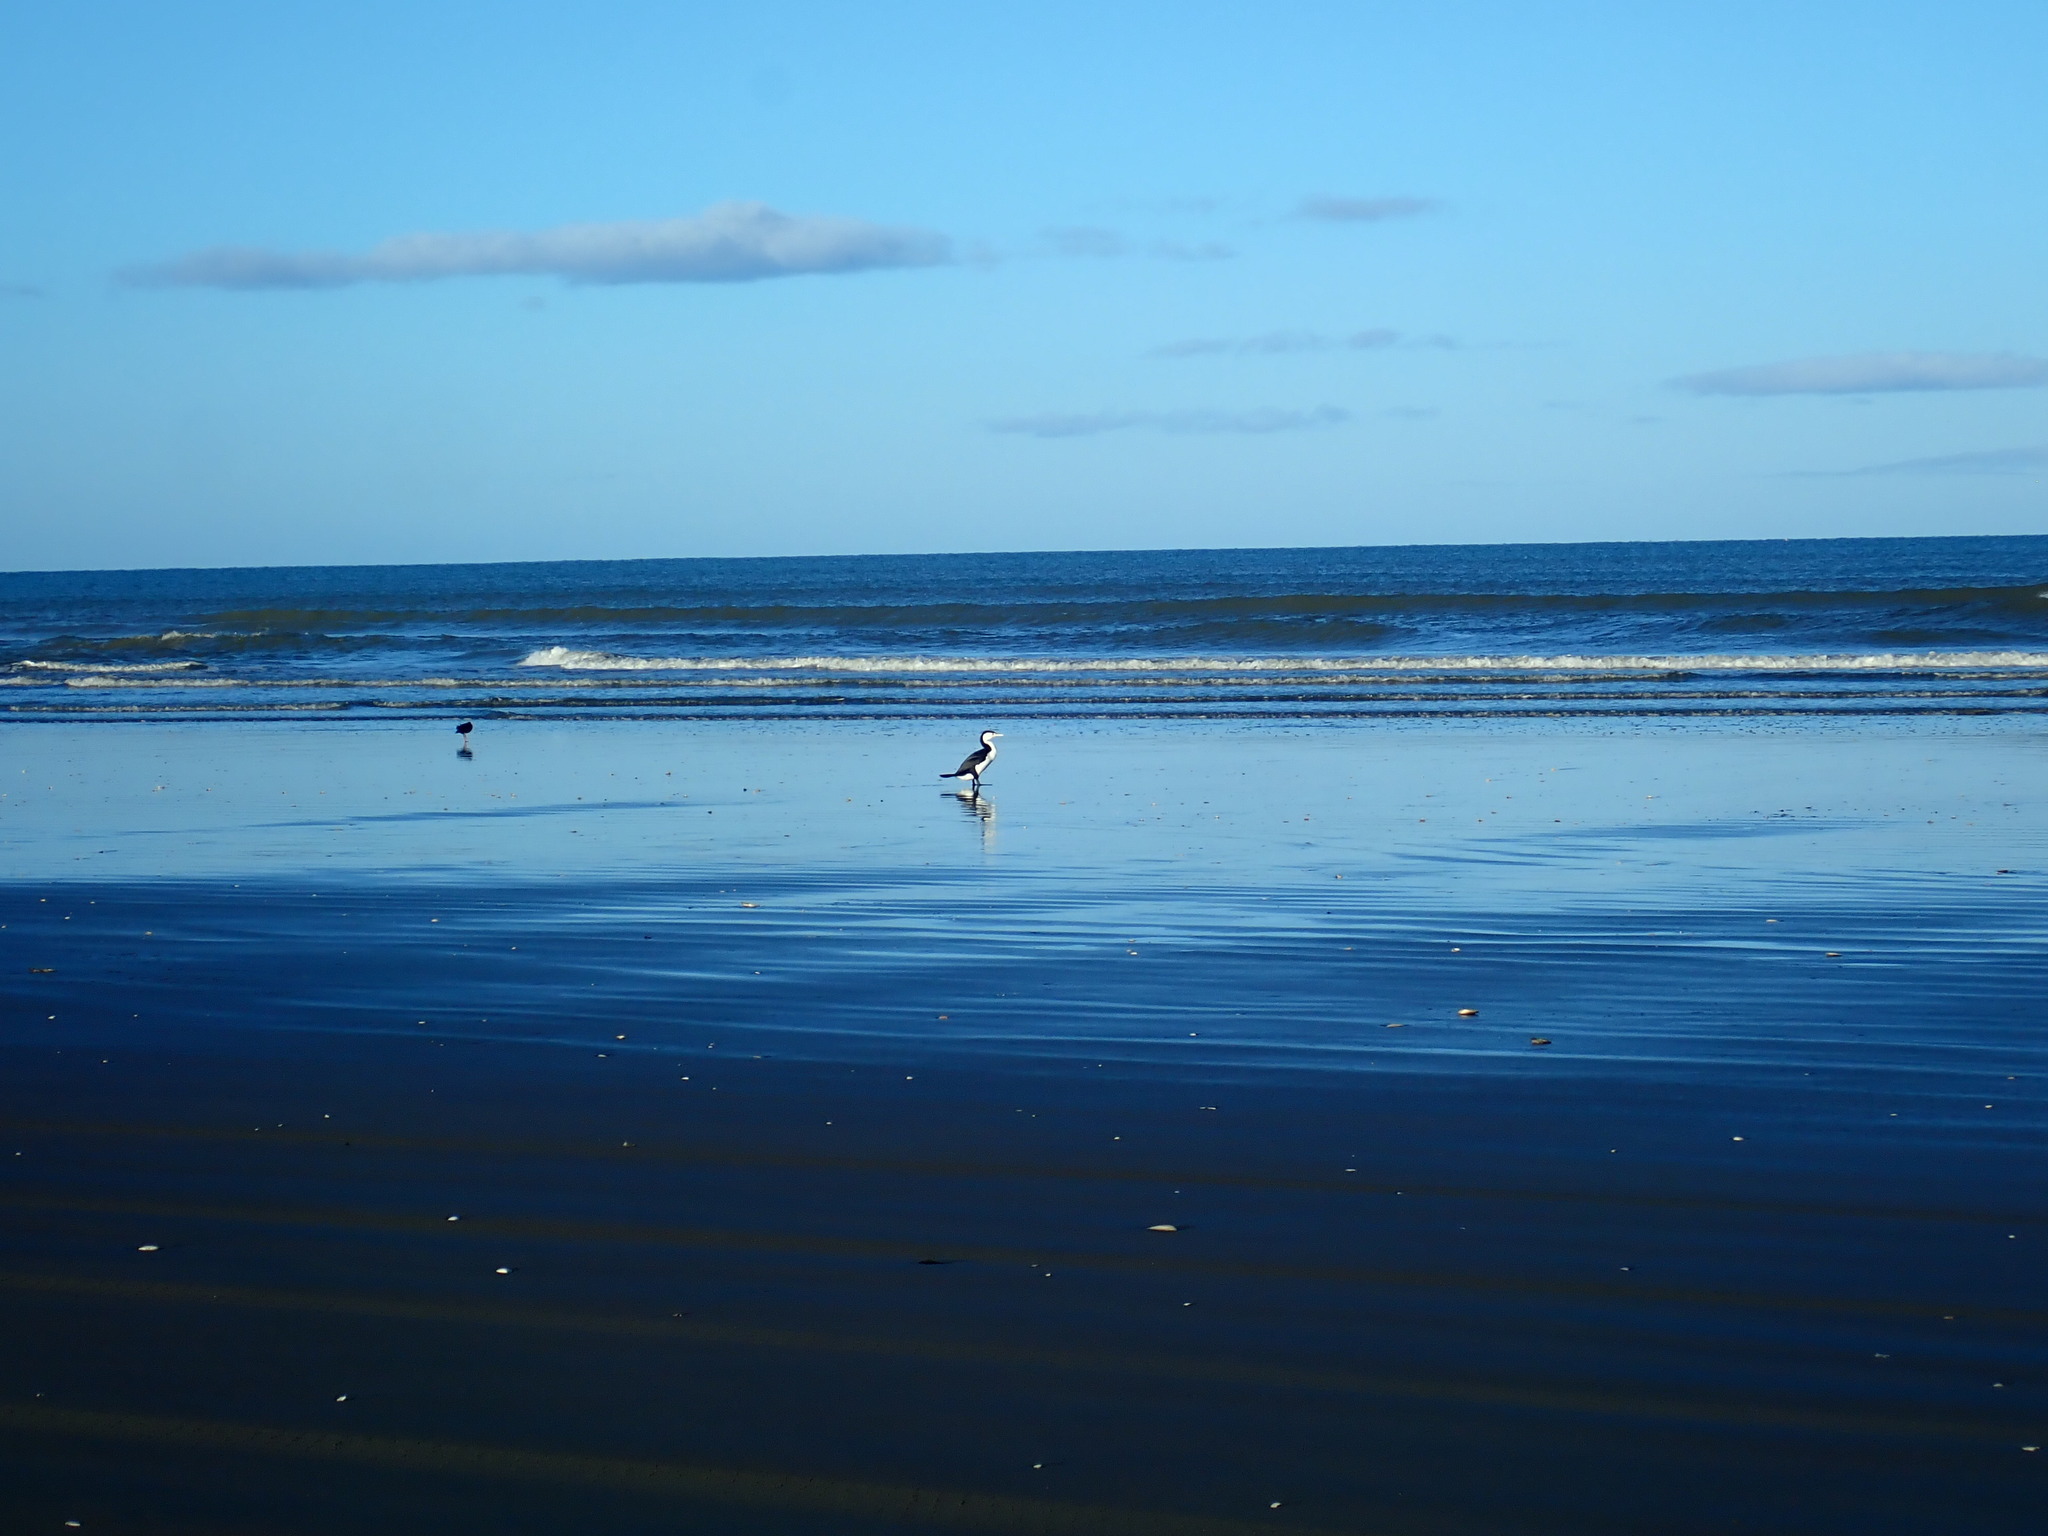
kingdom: Animalia
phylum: Chordata
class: Aves
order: Suliformes
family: Phalacrocoracidae
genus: Phalacrocorax
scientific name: Phalacrocorax varius
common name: Pied cormorant
